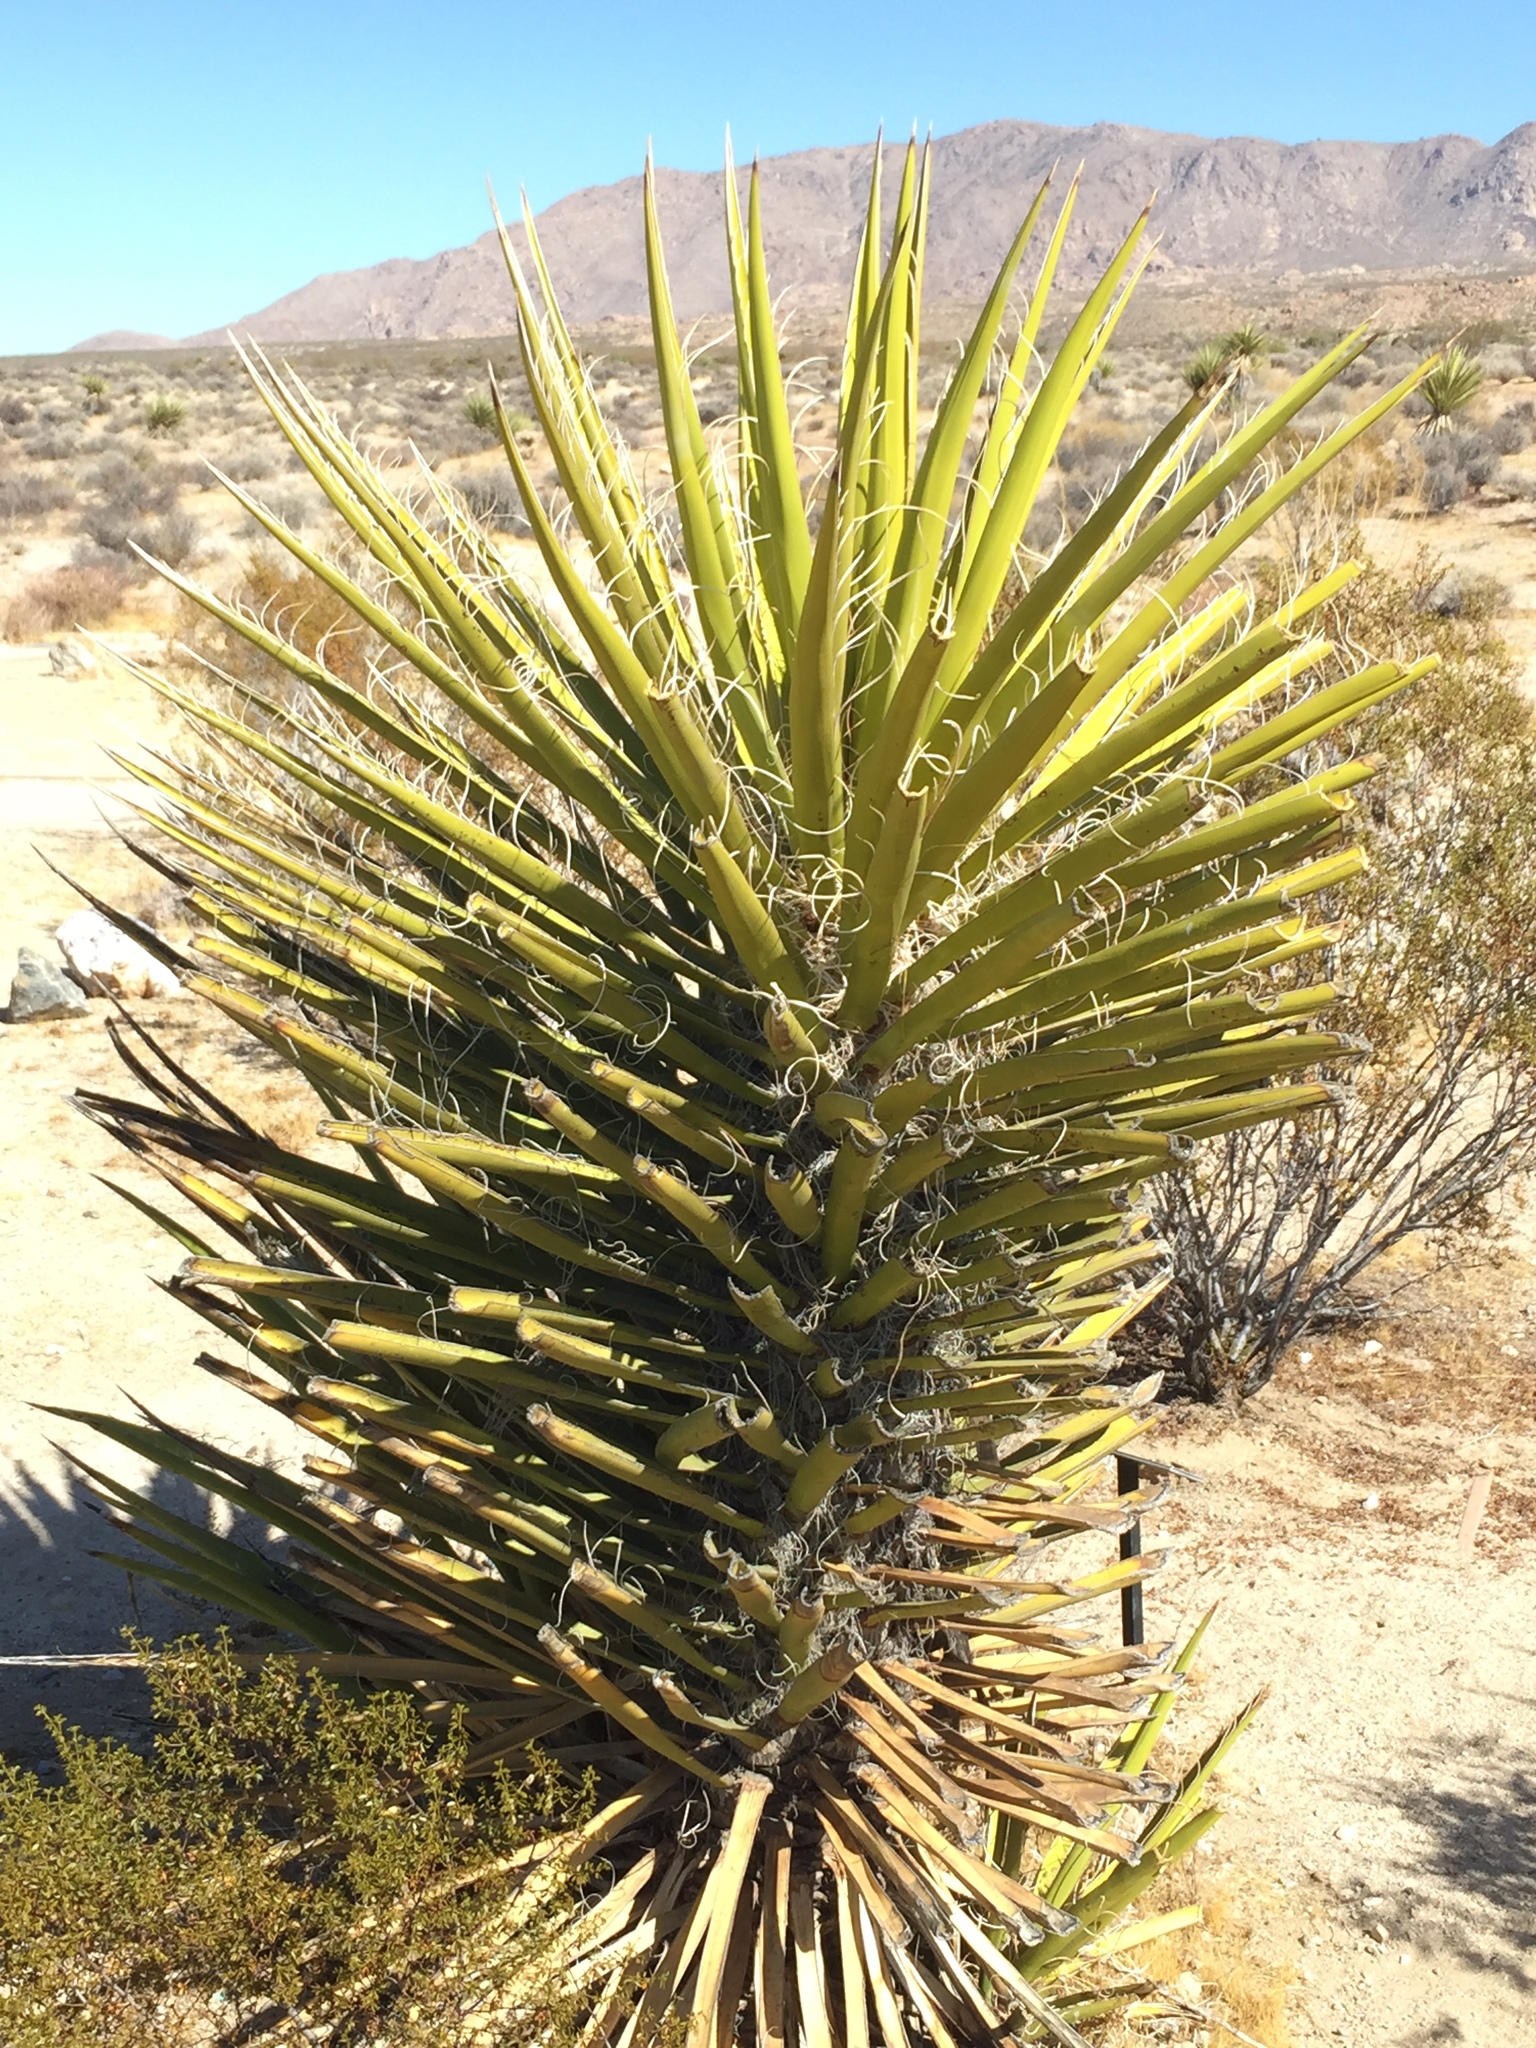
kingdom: Plantae
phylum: Tracheophyta
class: Liliopsida
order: Asparagales
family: Asparagaceae
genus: Yucca
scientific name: Yucca schidigera
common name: Mojave yucca
